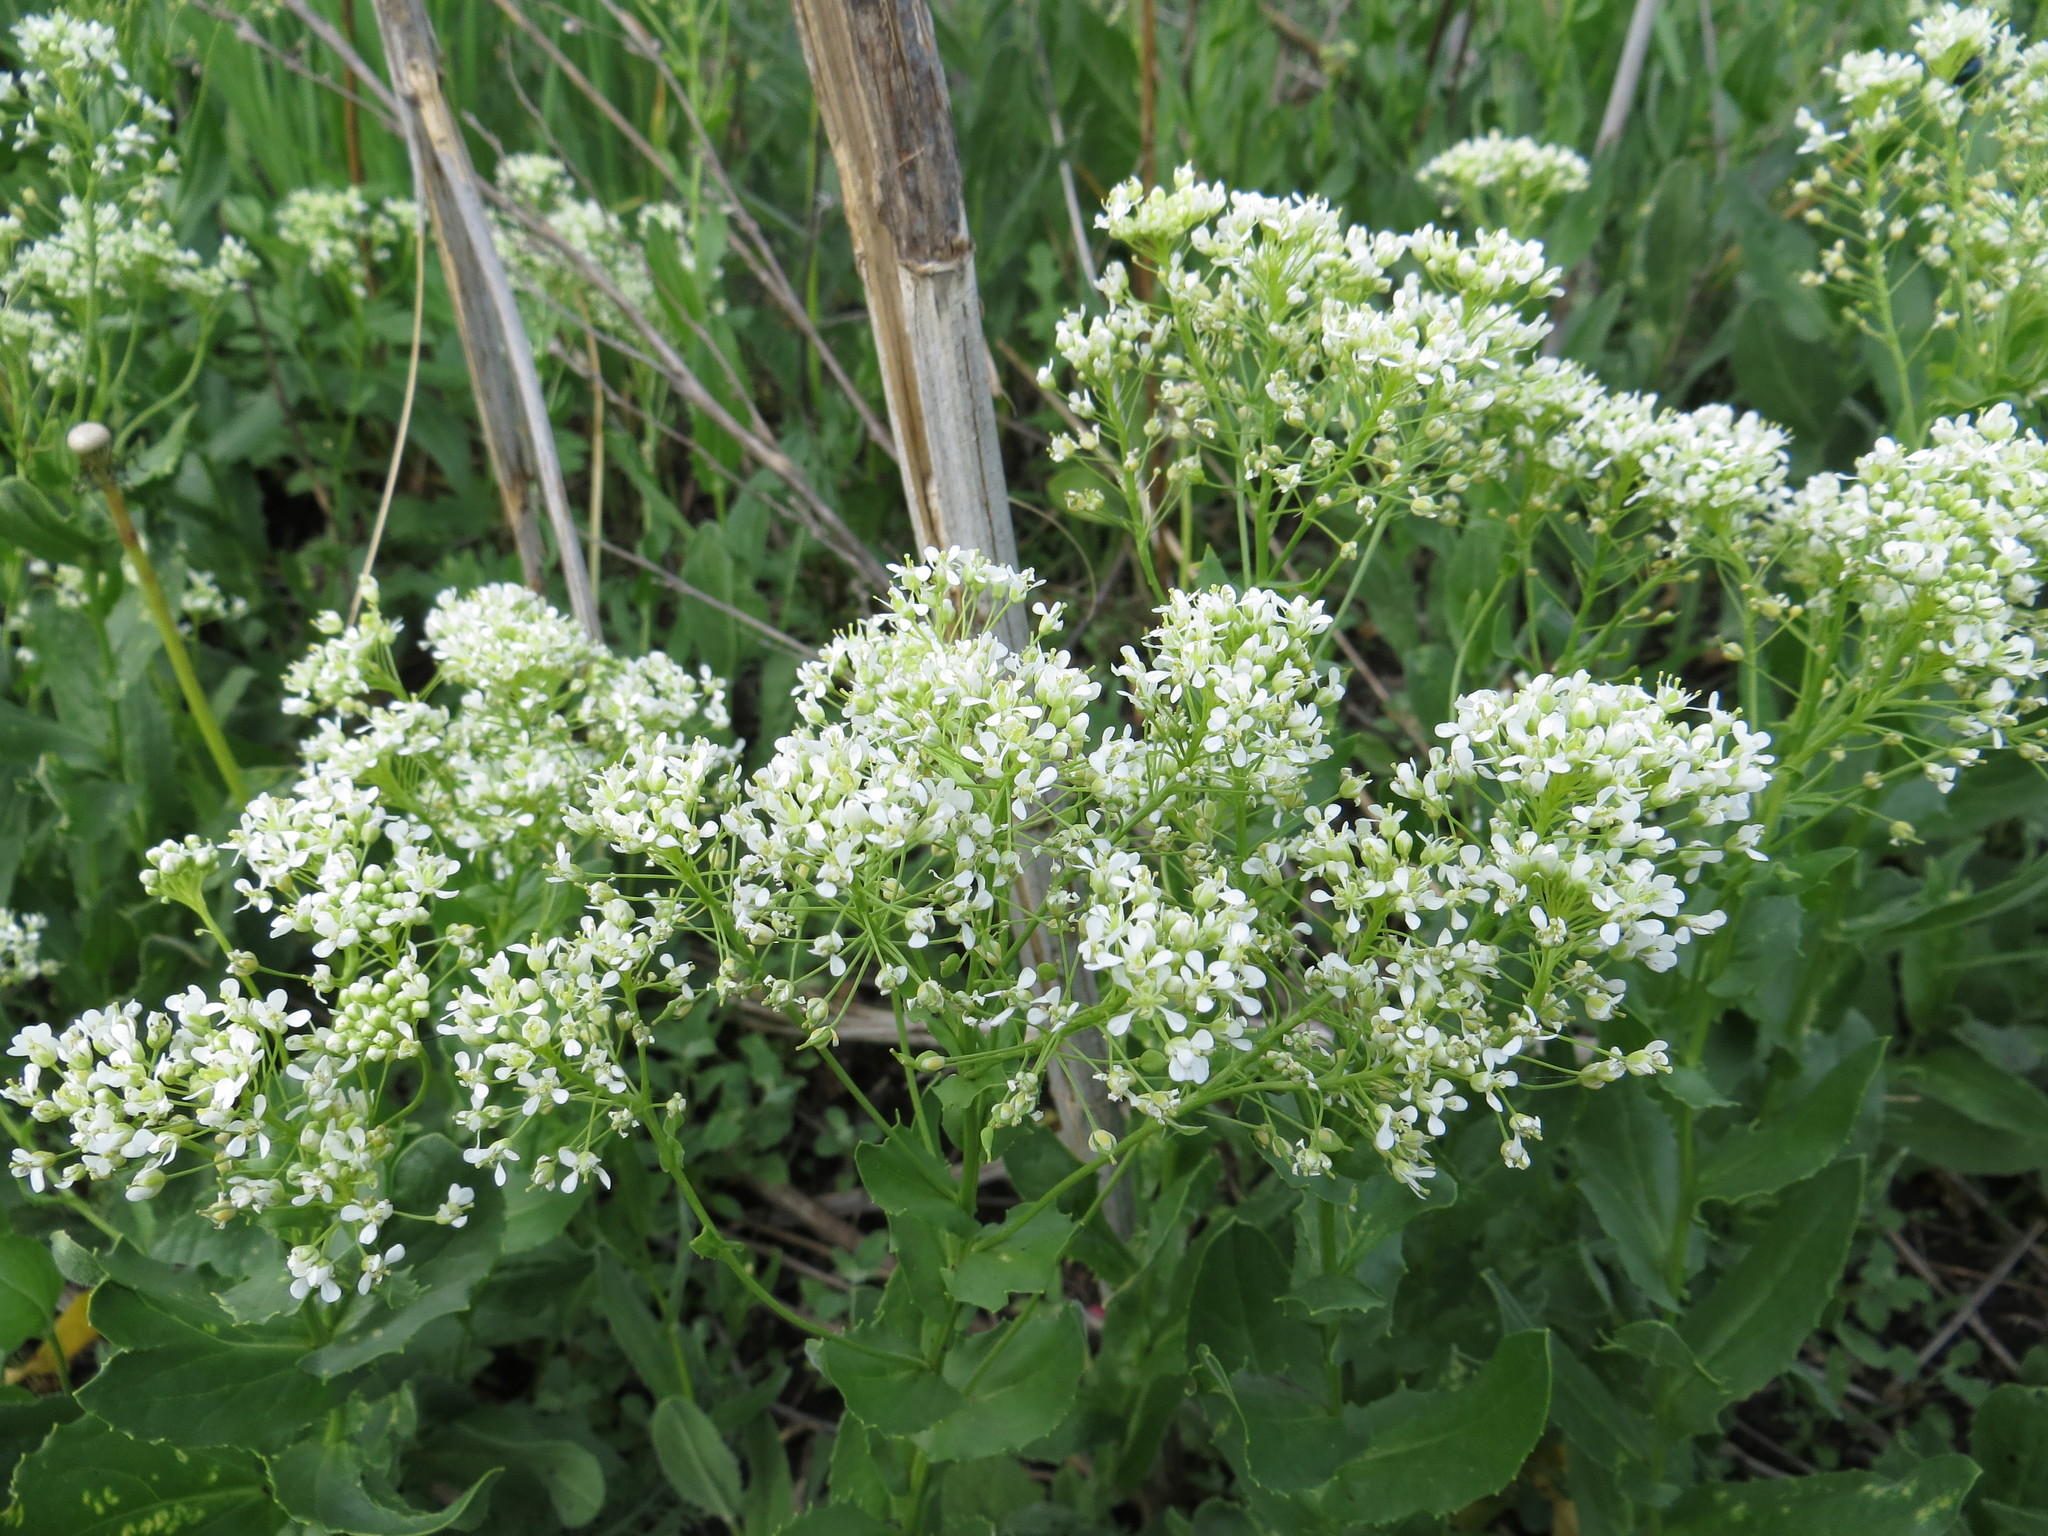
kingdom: Plantae
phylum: Tracheophyta
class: Magnoliopsida
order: Brassicales
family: Brassicaceae
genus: Lepidium
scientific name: Lepidium draba
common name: Hoary cress
